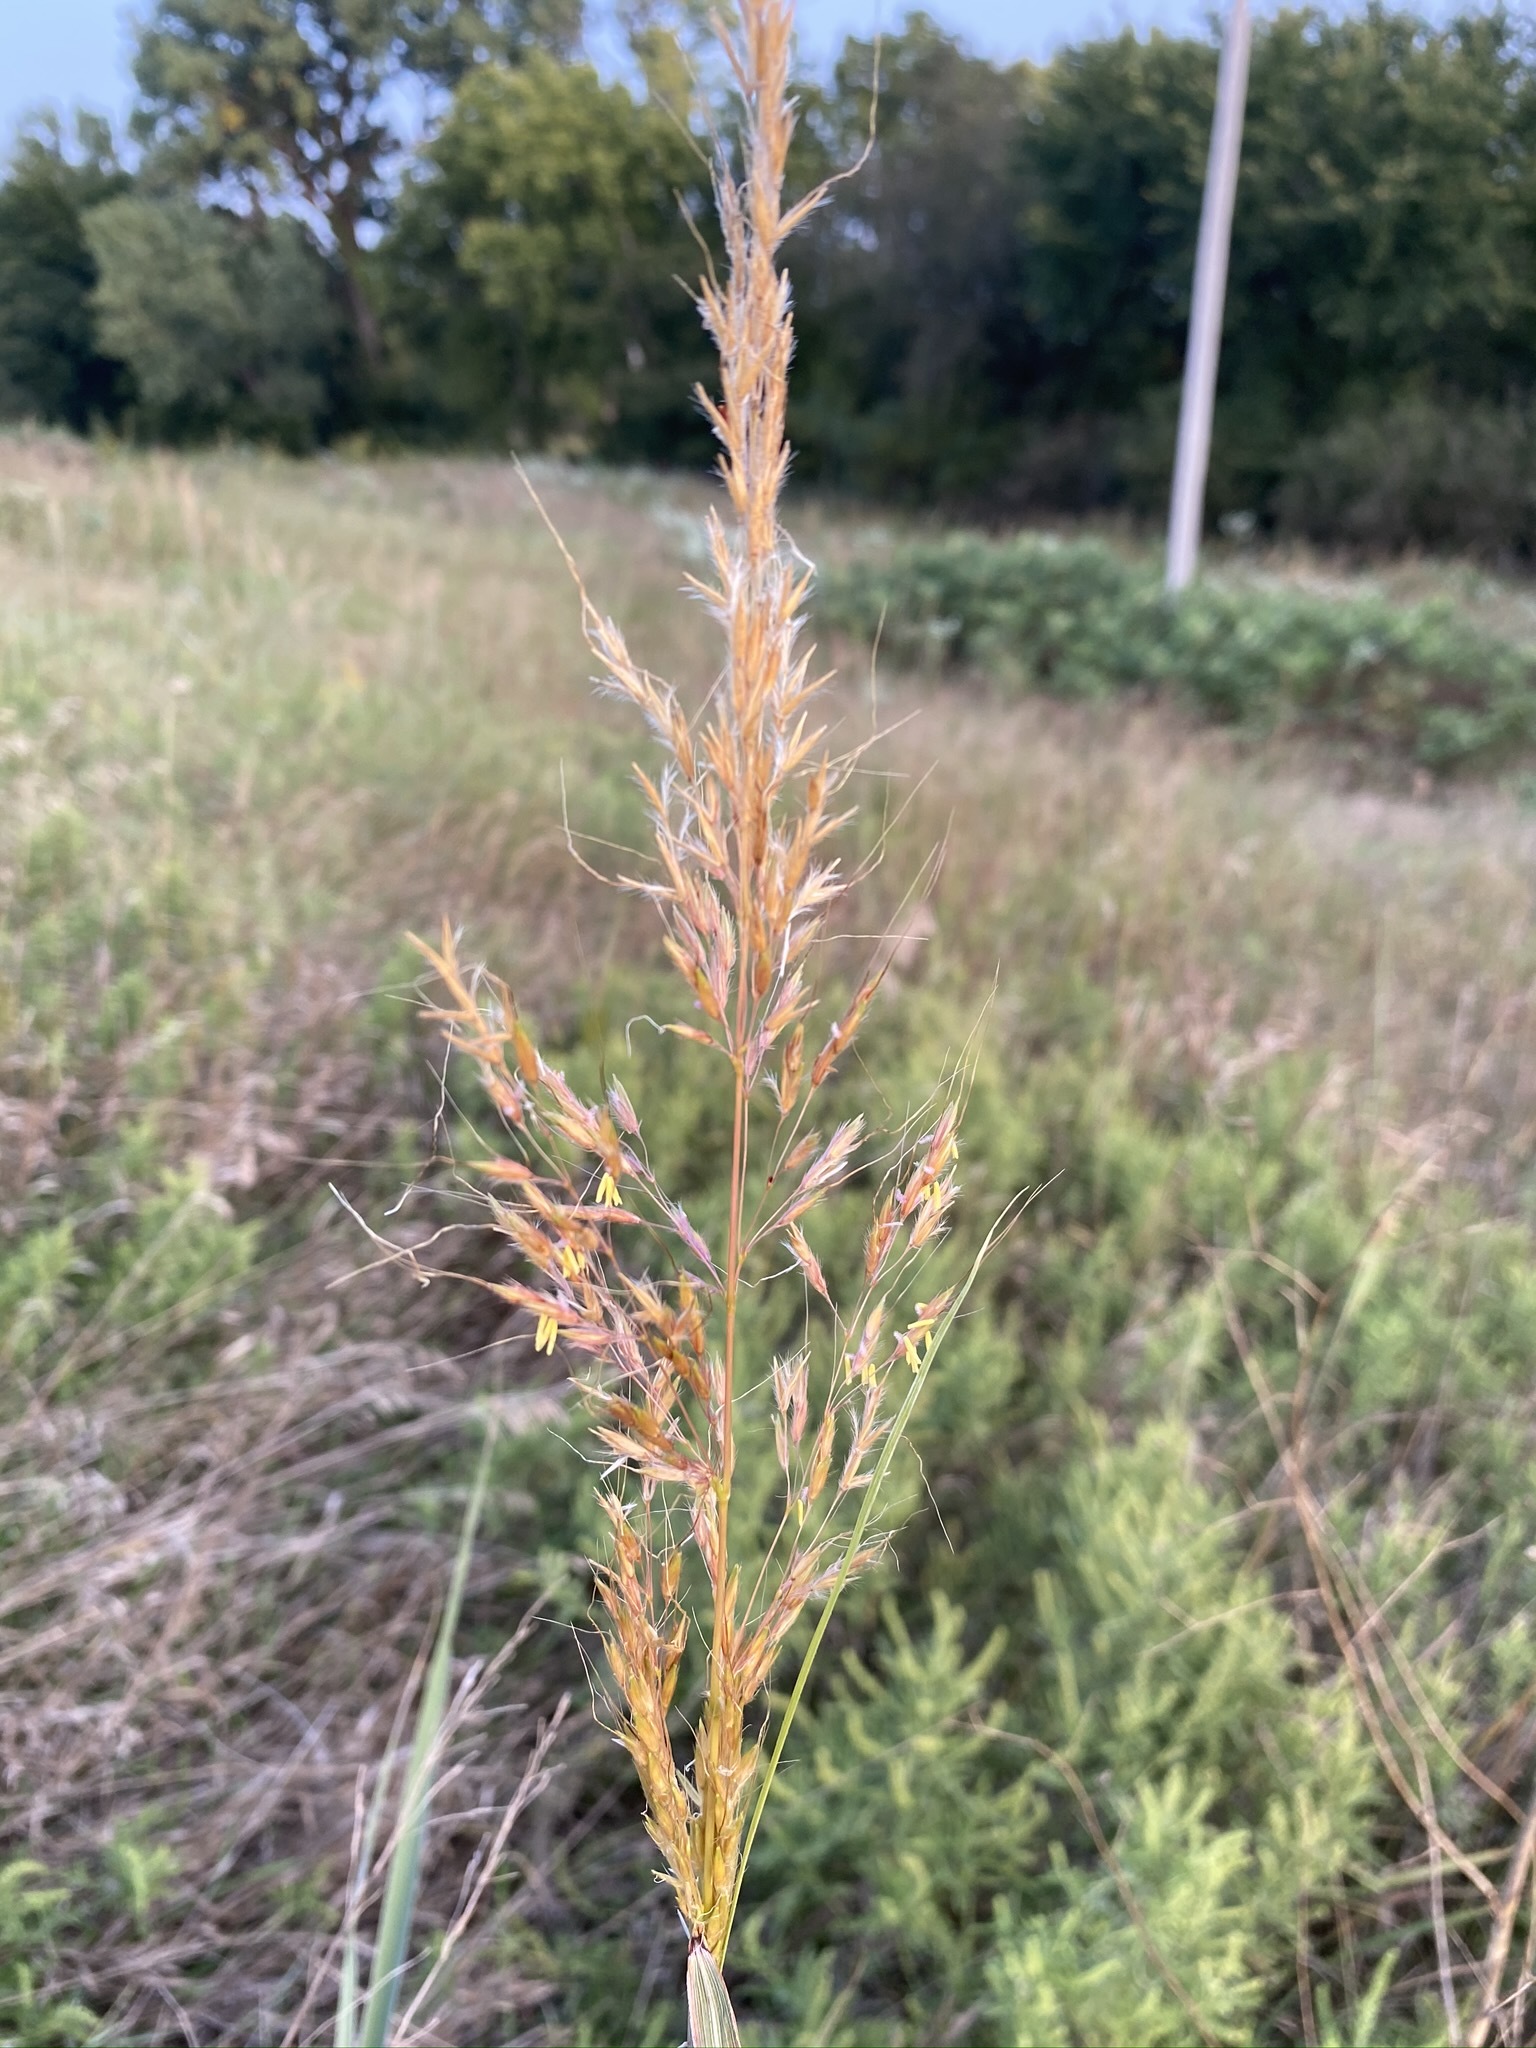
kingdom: Plantae
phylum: Tracheophyta
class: Liliopsida
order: Poales
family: Poaceae
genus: Sorghastrum
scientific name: Sorghastrum nutans
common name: Indian grass
